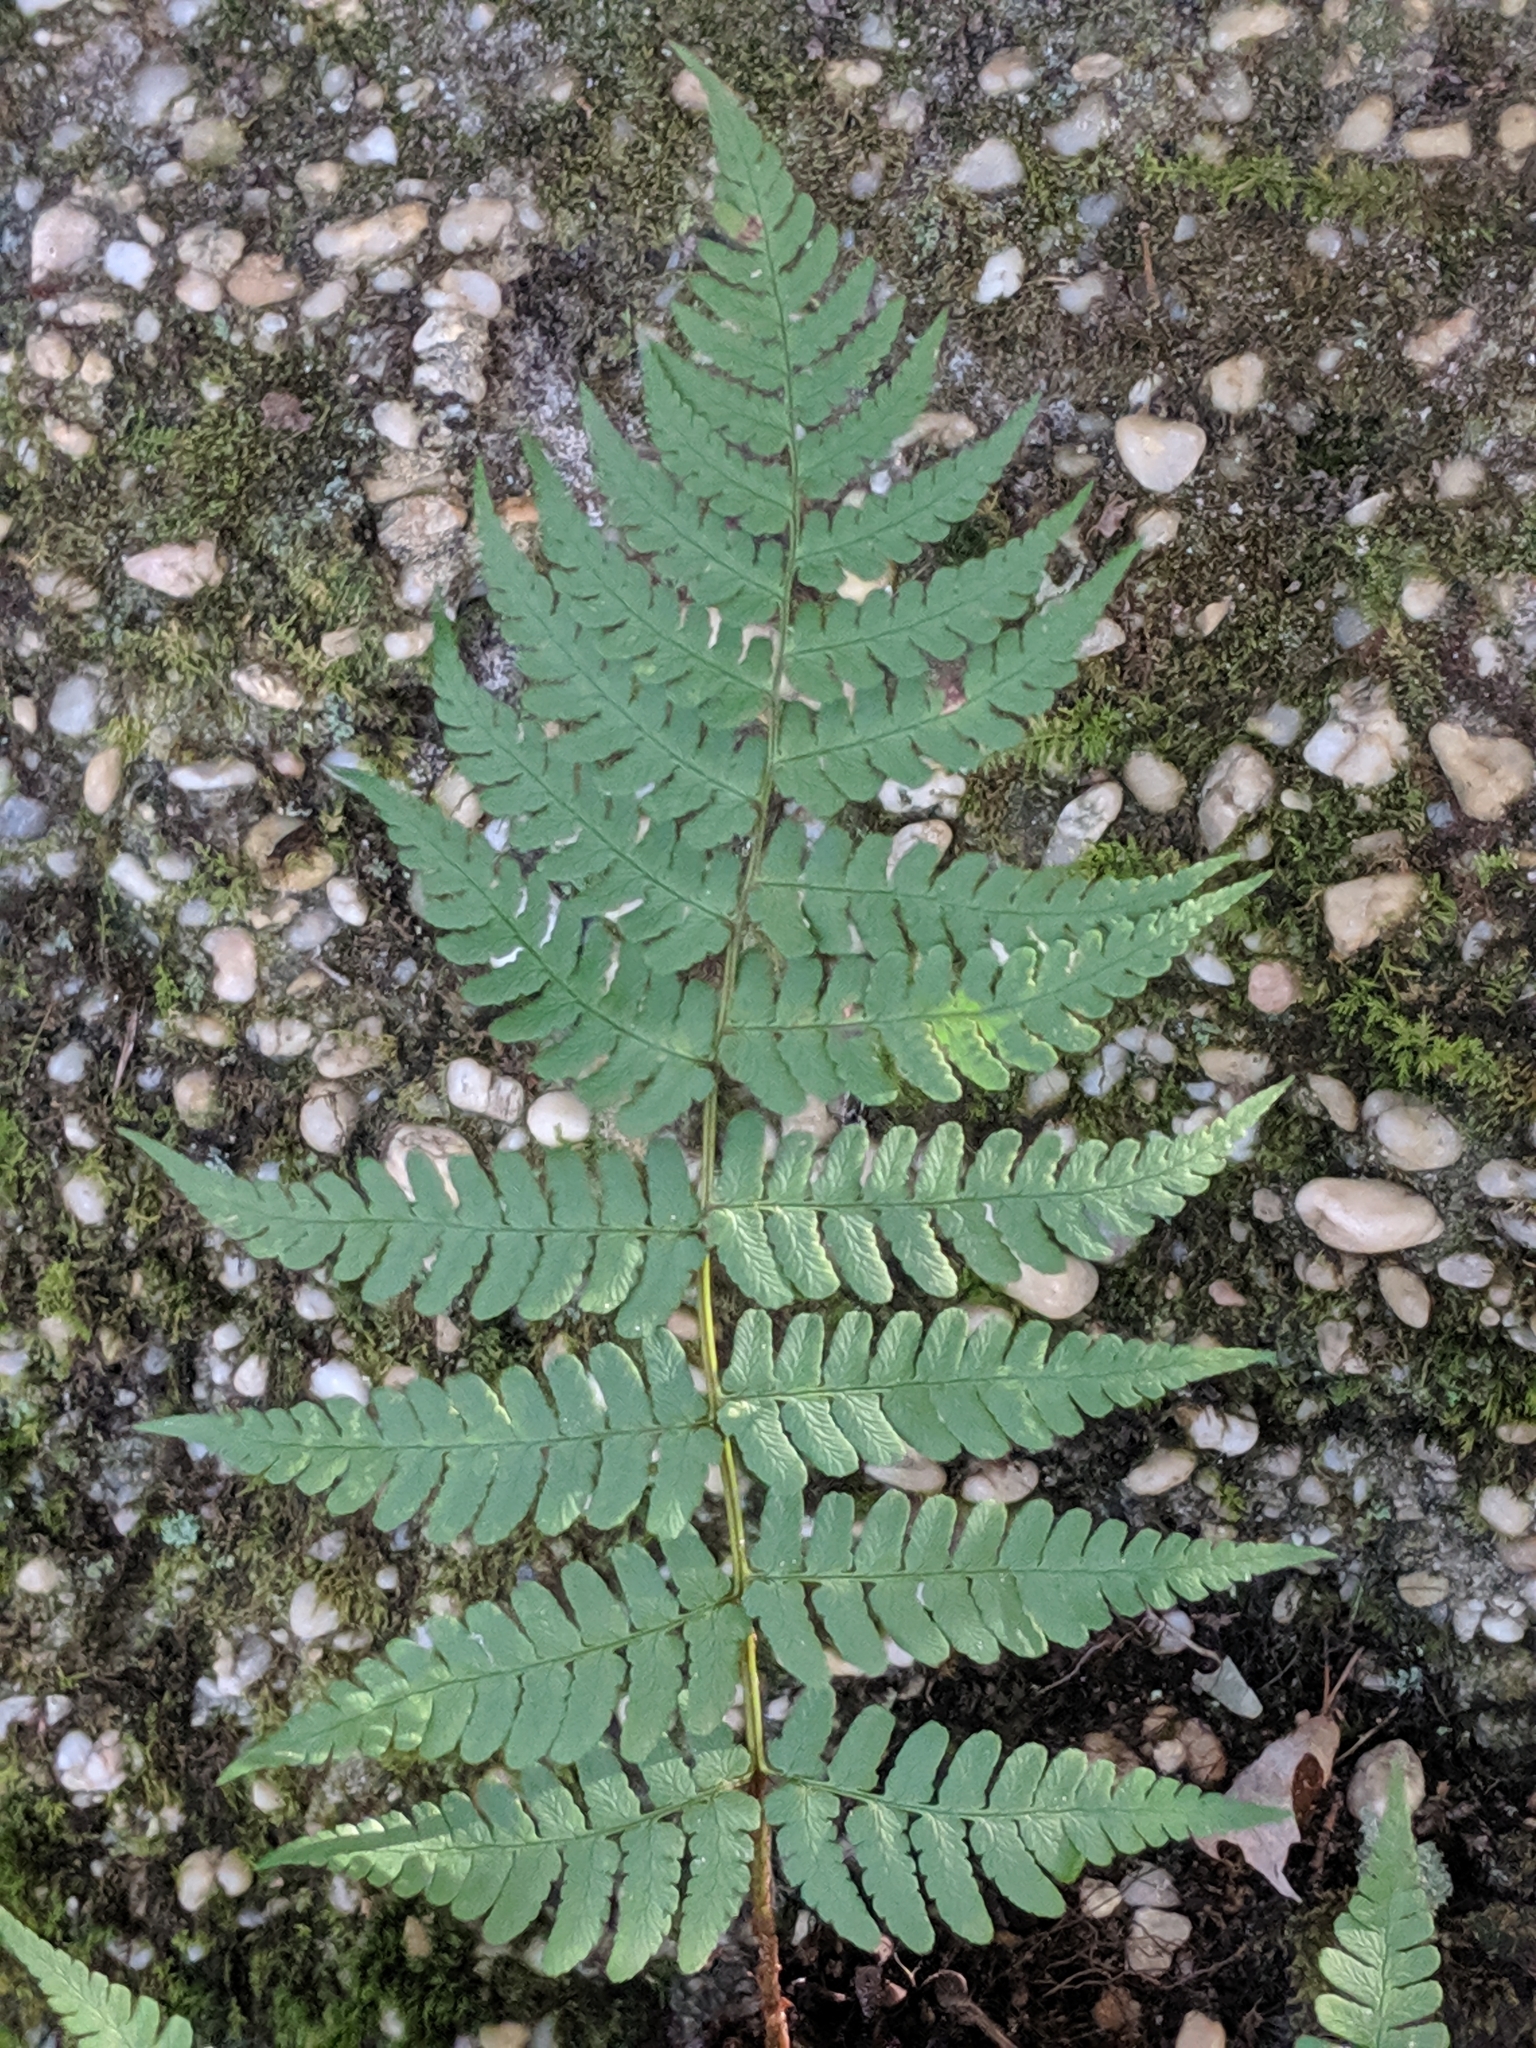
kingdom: Plantae
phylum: Tracheophyta
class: Polypodiopsida
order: Polypodiales
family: Dryopteridaceae
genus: Dryopteris
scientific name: Dryopteris marginalis
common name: Marginal wood fern
